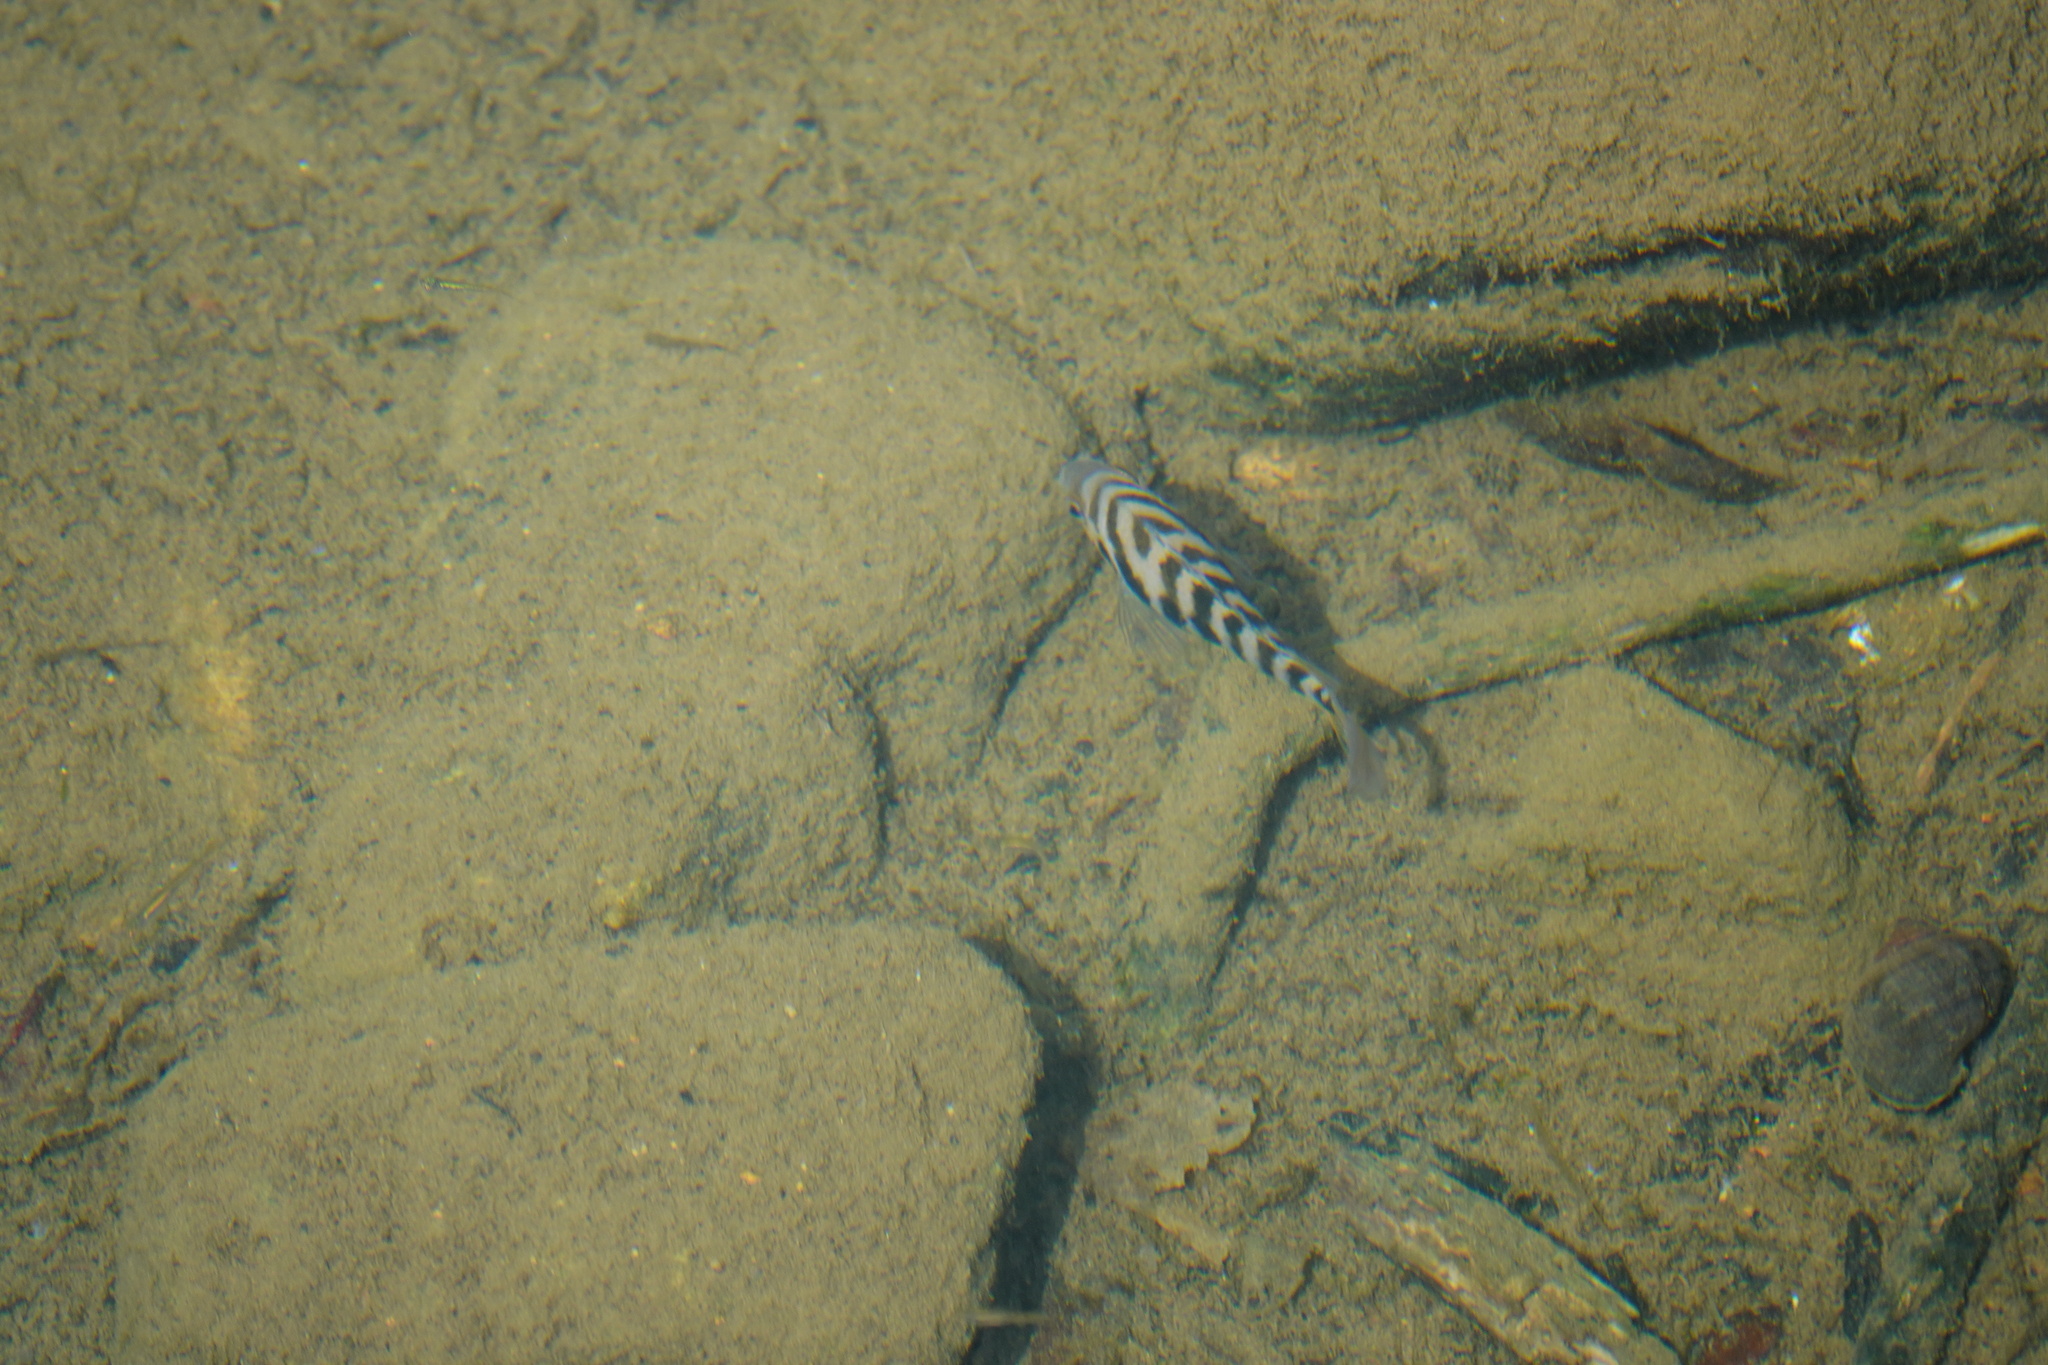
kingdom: Animalia
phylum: Chordata
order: Perciformes
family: Cichlidae
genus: Amatitlania
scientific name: Amatitlania nigrofasciata
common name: Convict cichlid
